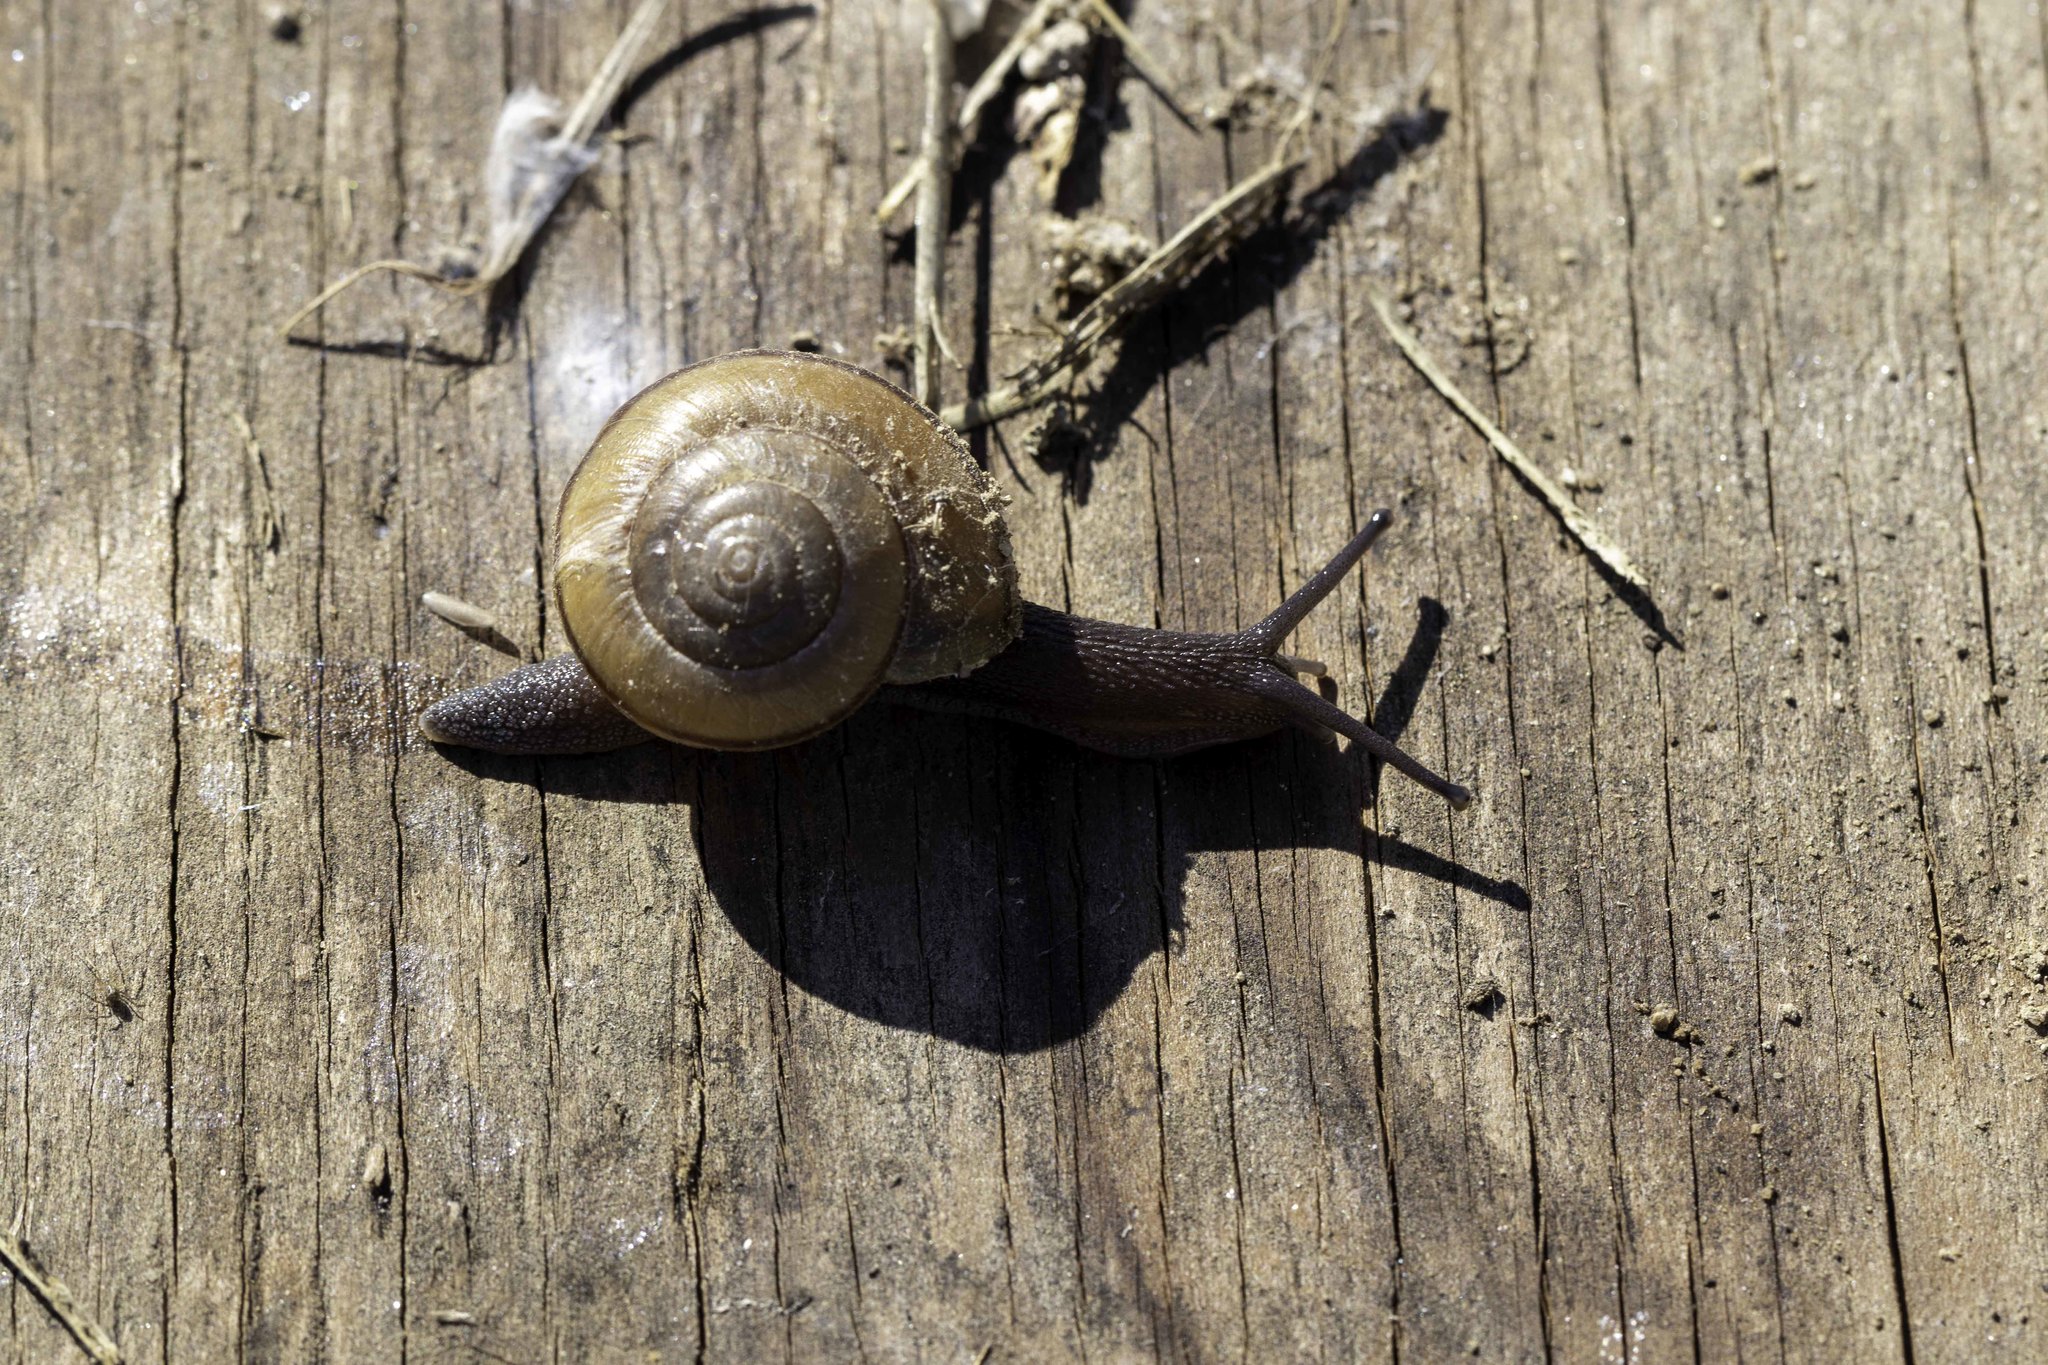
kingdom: Animalia
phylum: Mollusca
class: Gastropoda
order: Stylommatophora
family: Xanthonychidae
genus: Helminthoglypta
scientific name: Helminthoglypta traskii
